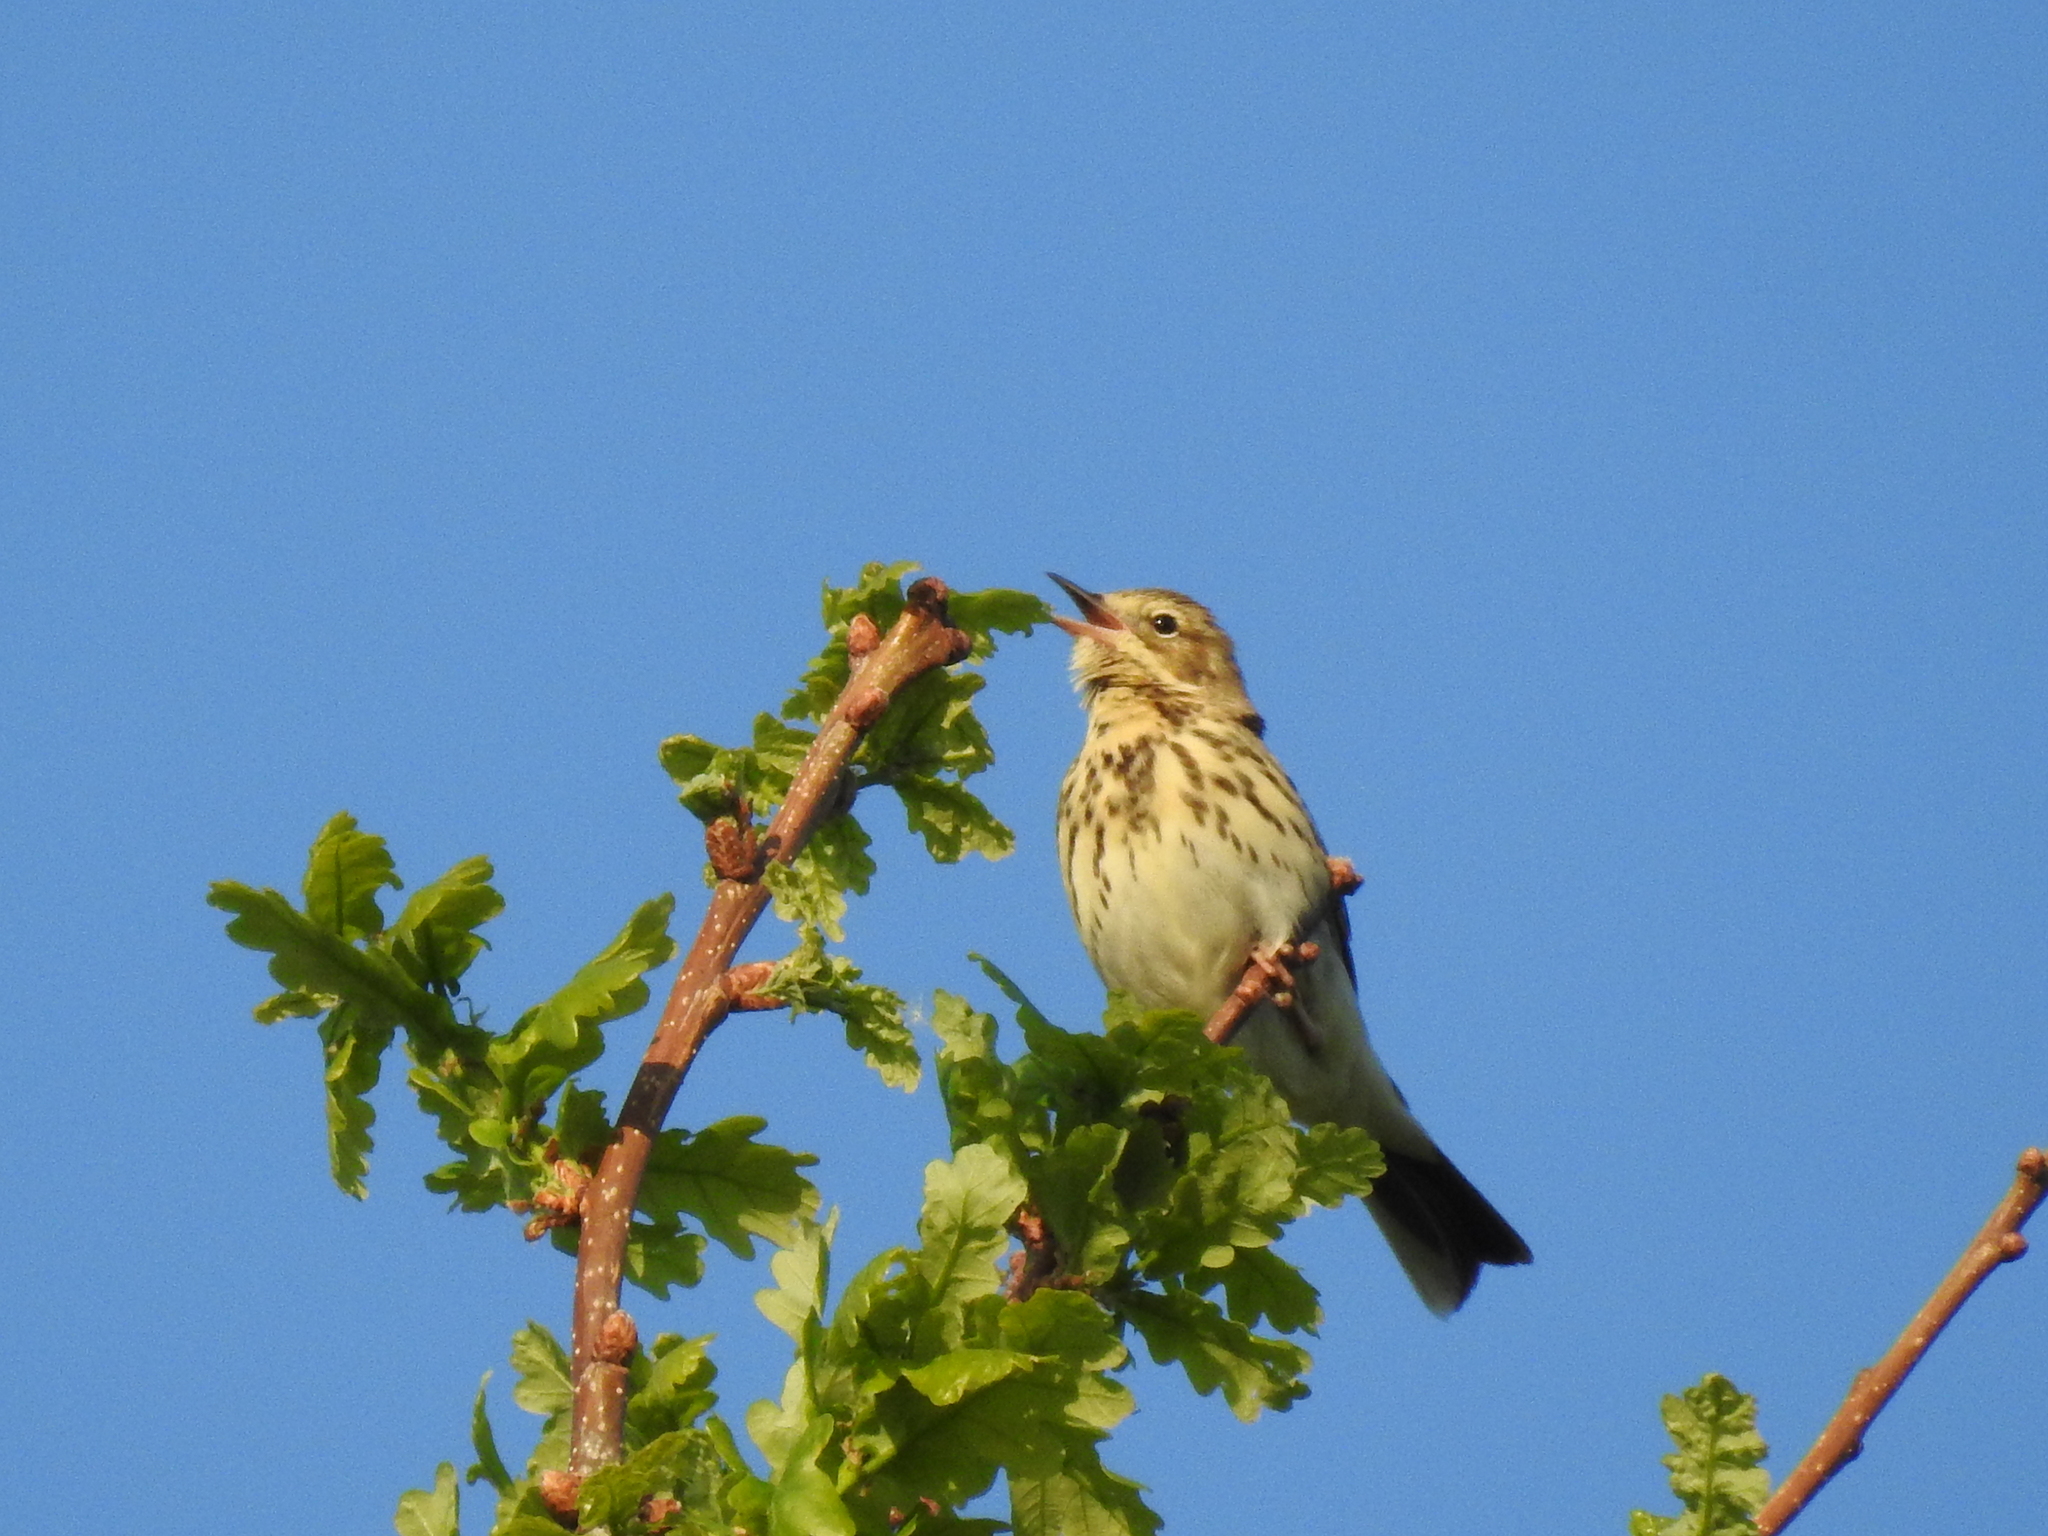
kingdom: Animalia
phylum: Chordata
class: Aves
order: Passeriformes
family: Motacillidae
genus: Anthus
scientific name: Anthus trivialis
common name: Tree pipit
